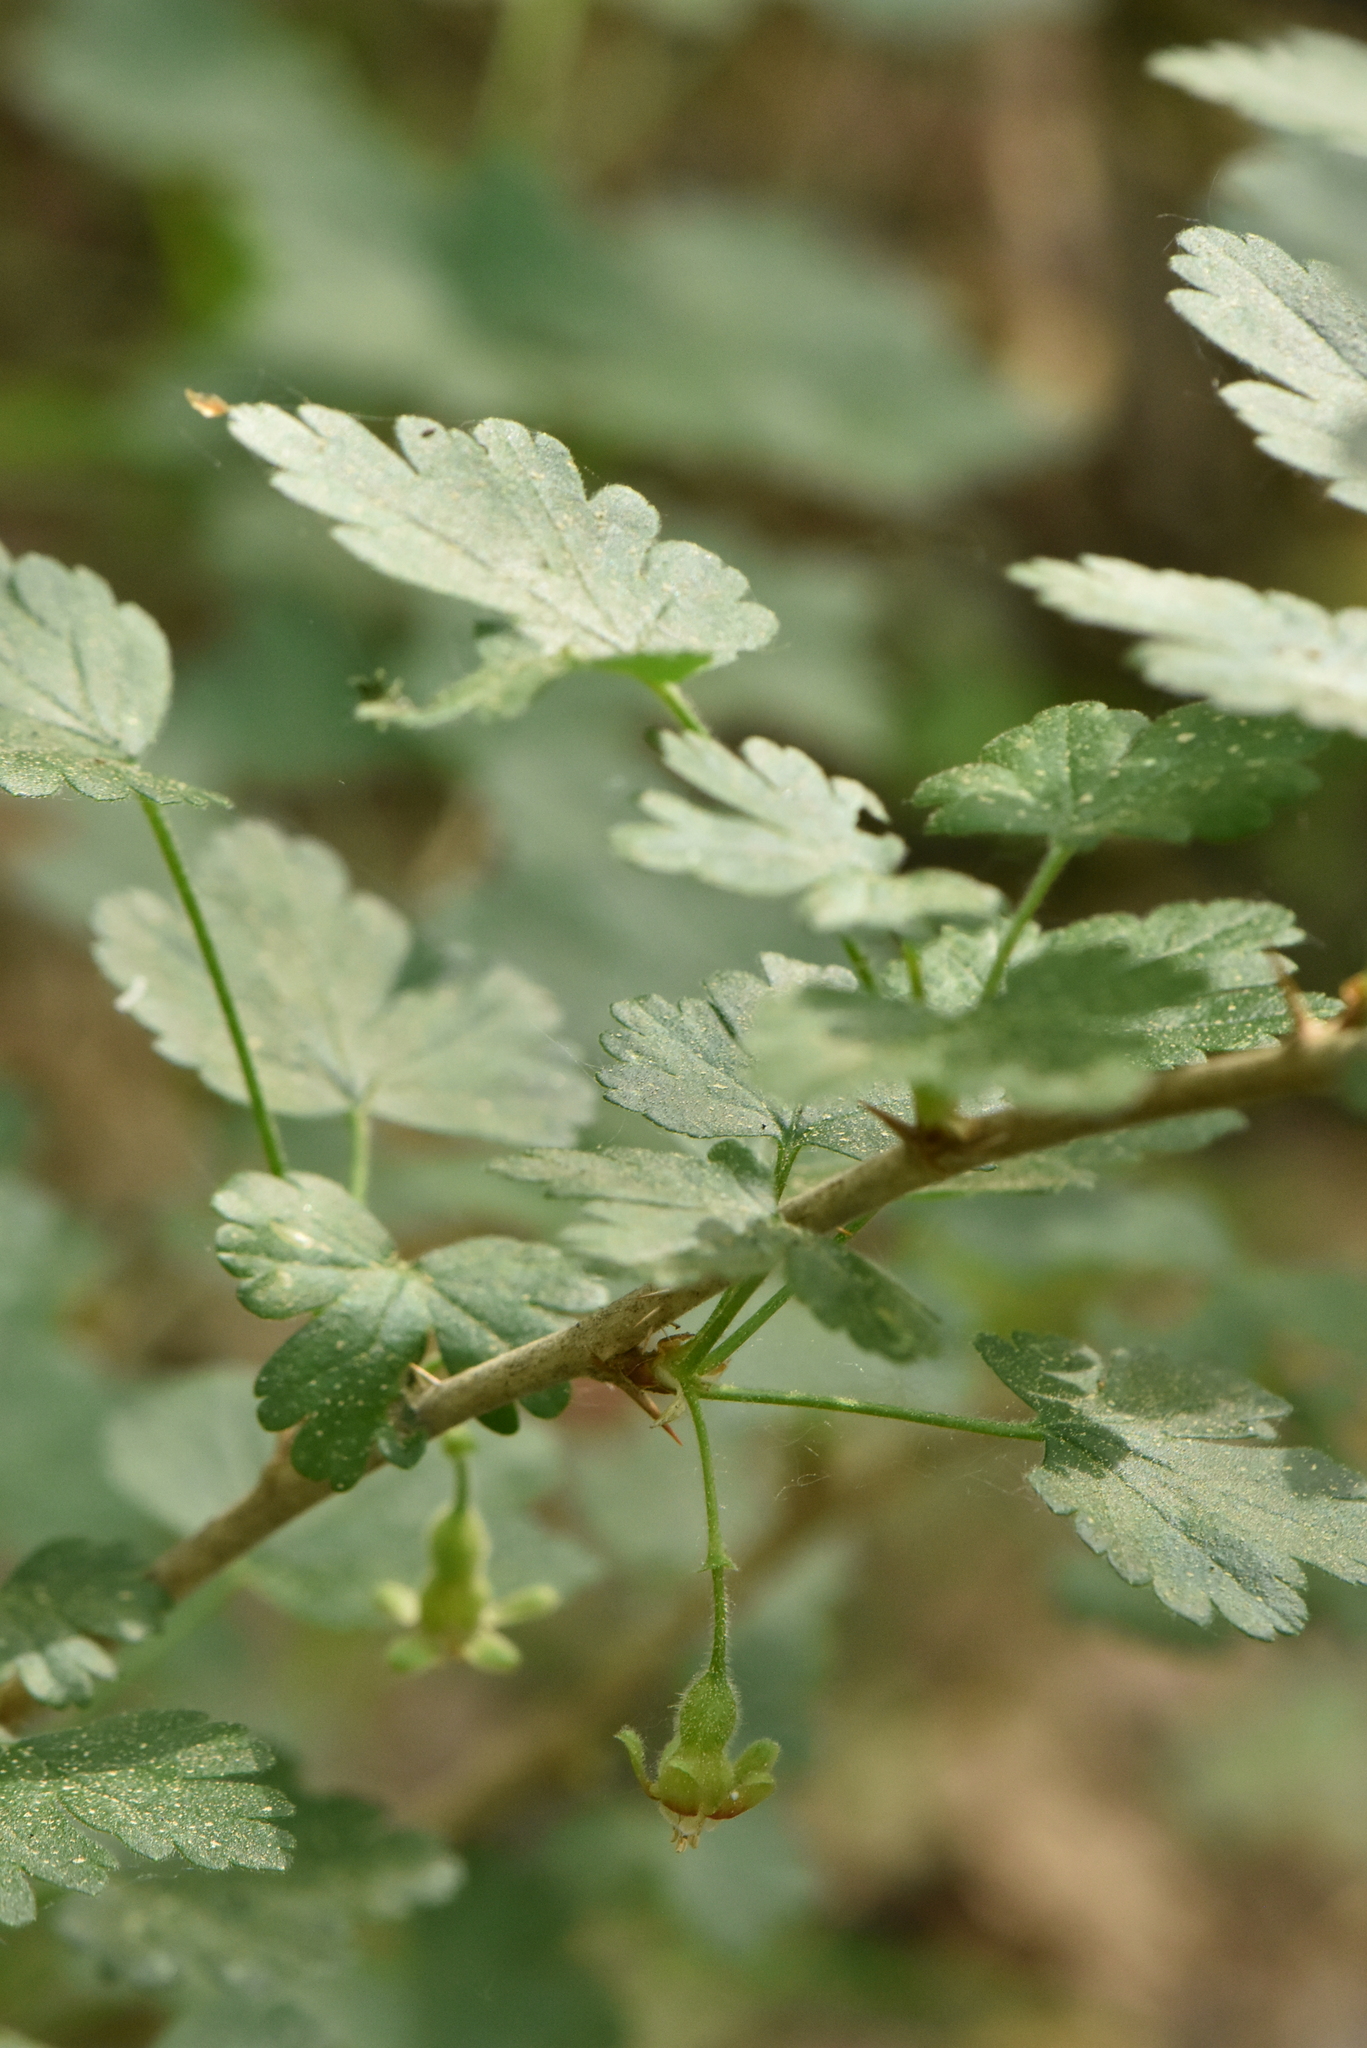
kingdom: Plantae
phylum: Tracheophyta
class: Magnoliopsida
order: Saxifragales
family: Grossulariaceae
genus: Ribes
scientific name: Ribes uva-crispa
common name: Gooseberry
